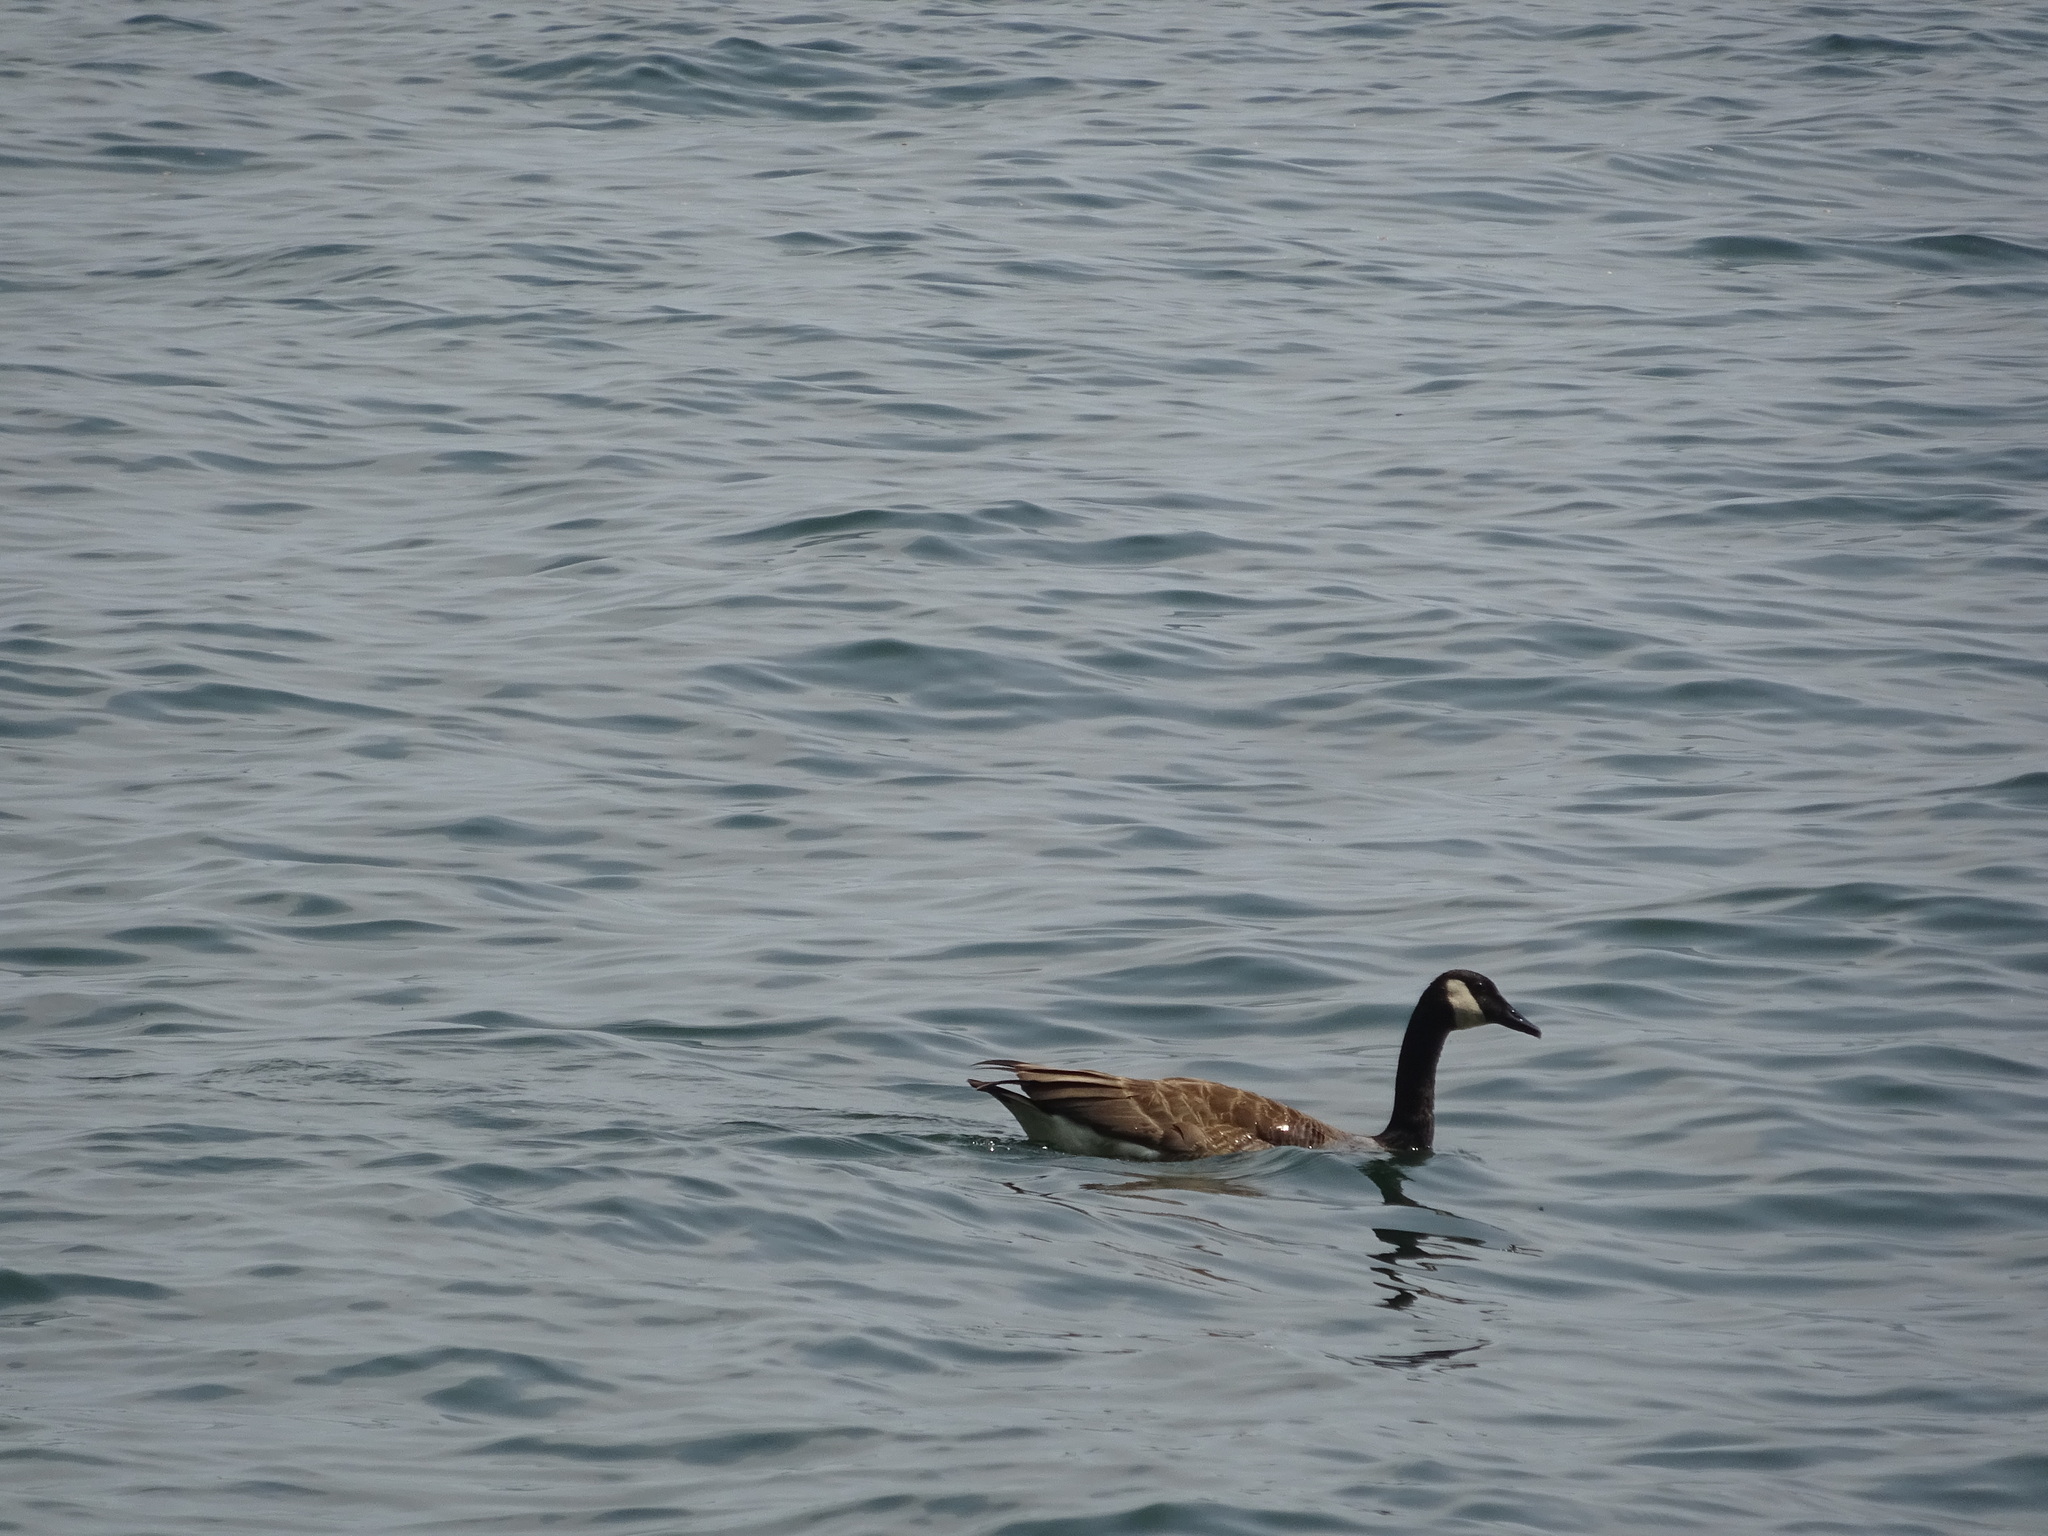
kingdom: Animalia
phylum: Chordata
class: Aves
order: Anseriformes
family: Anatidae
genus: Branta
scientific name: Branta canadensis
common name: Canada goose
